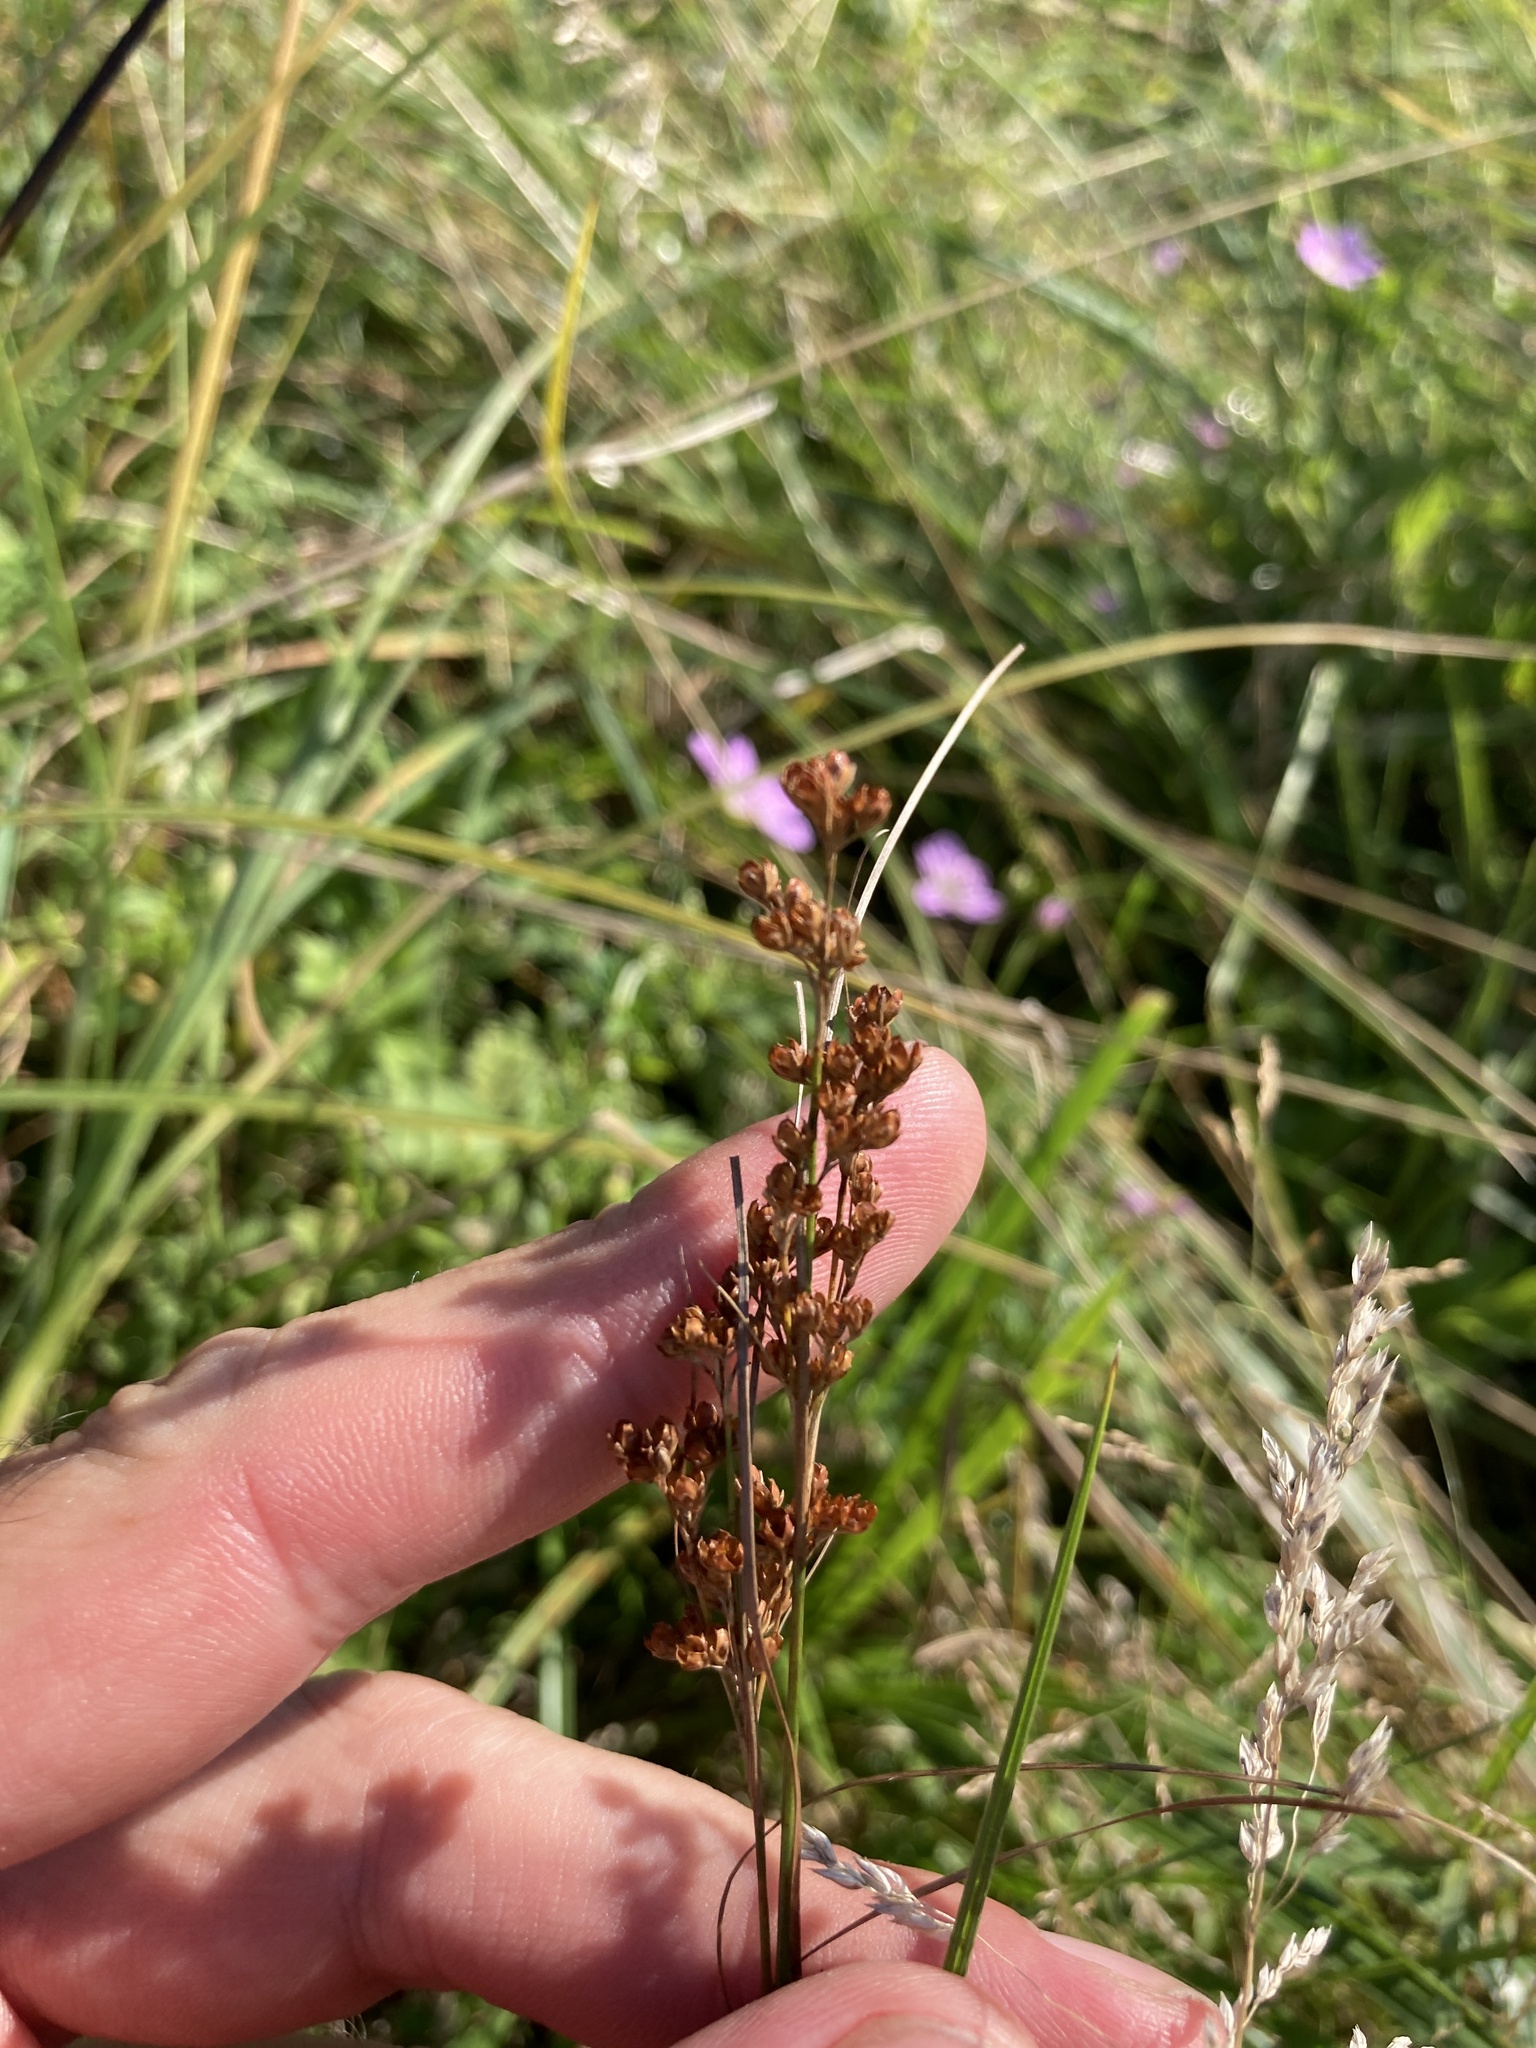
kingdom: Plantae
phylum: Tracheophyta
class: Liliopsida
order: Poales
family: Juncaceae
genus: Juncus
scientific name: Juncus compressus
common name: Round-fruited rush
